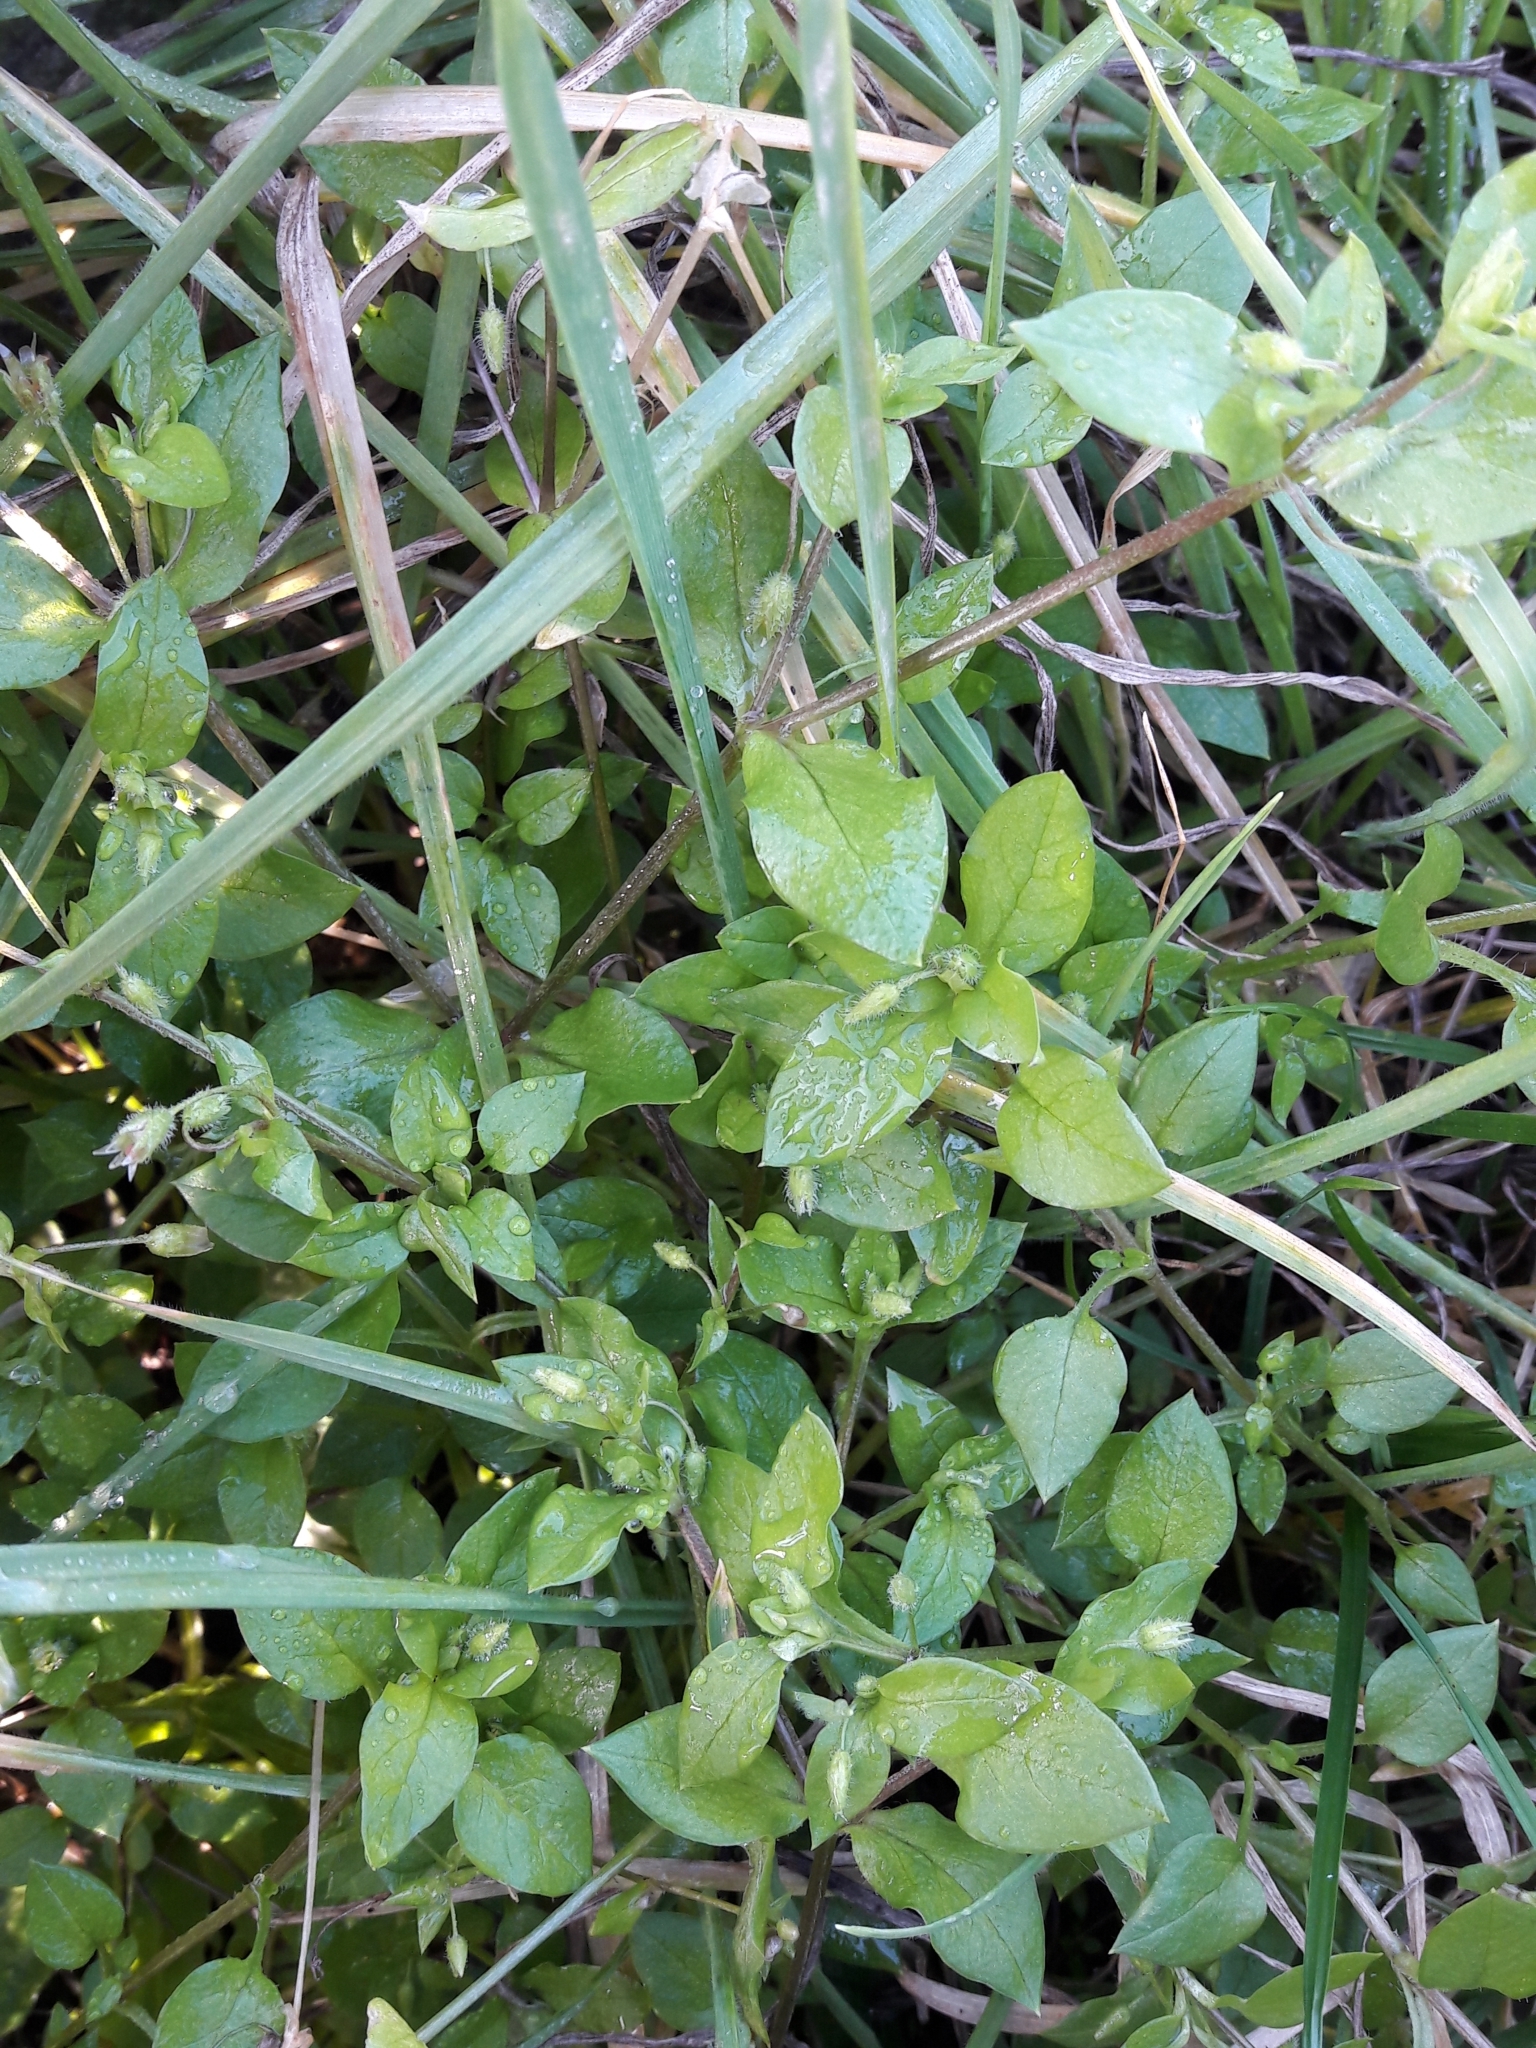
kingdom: Plantae
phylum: Tracheophyta
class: Magnoliopsida
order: Caryophyllales
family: Caryophyllaceae
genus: Stellaria
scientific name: Stellaria media
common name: Common chickweed
